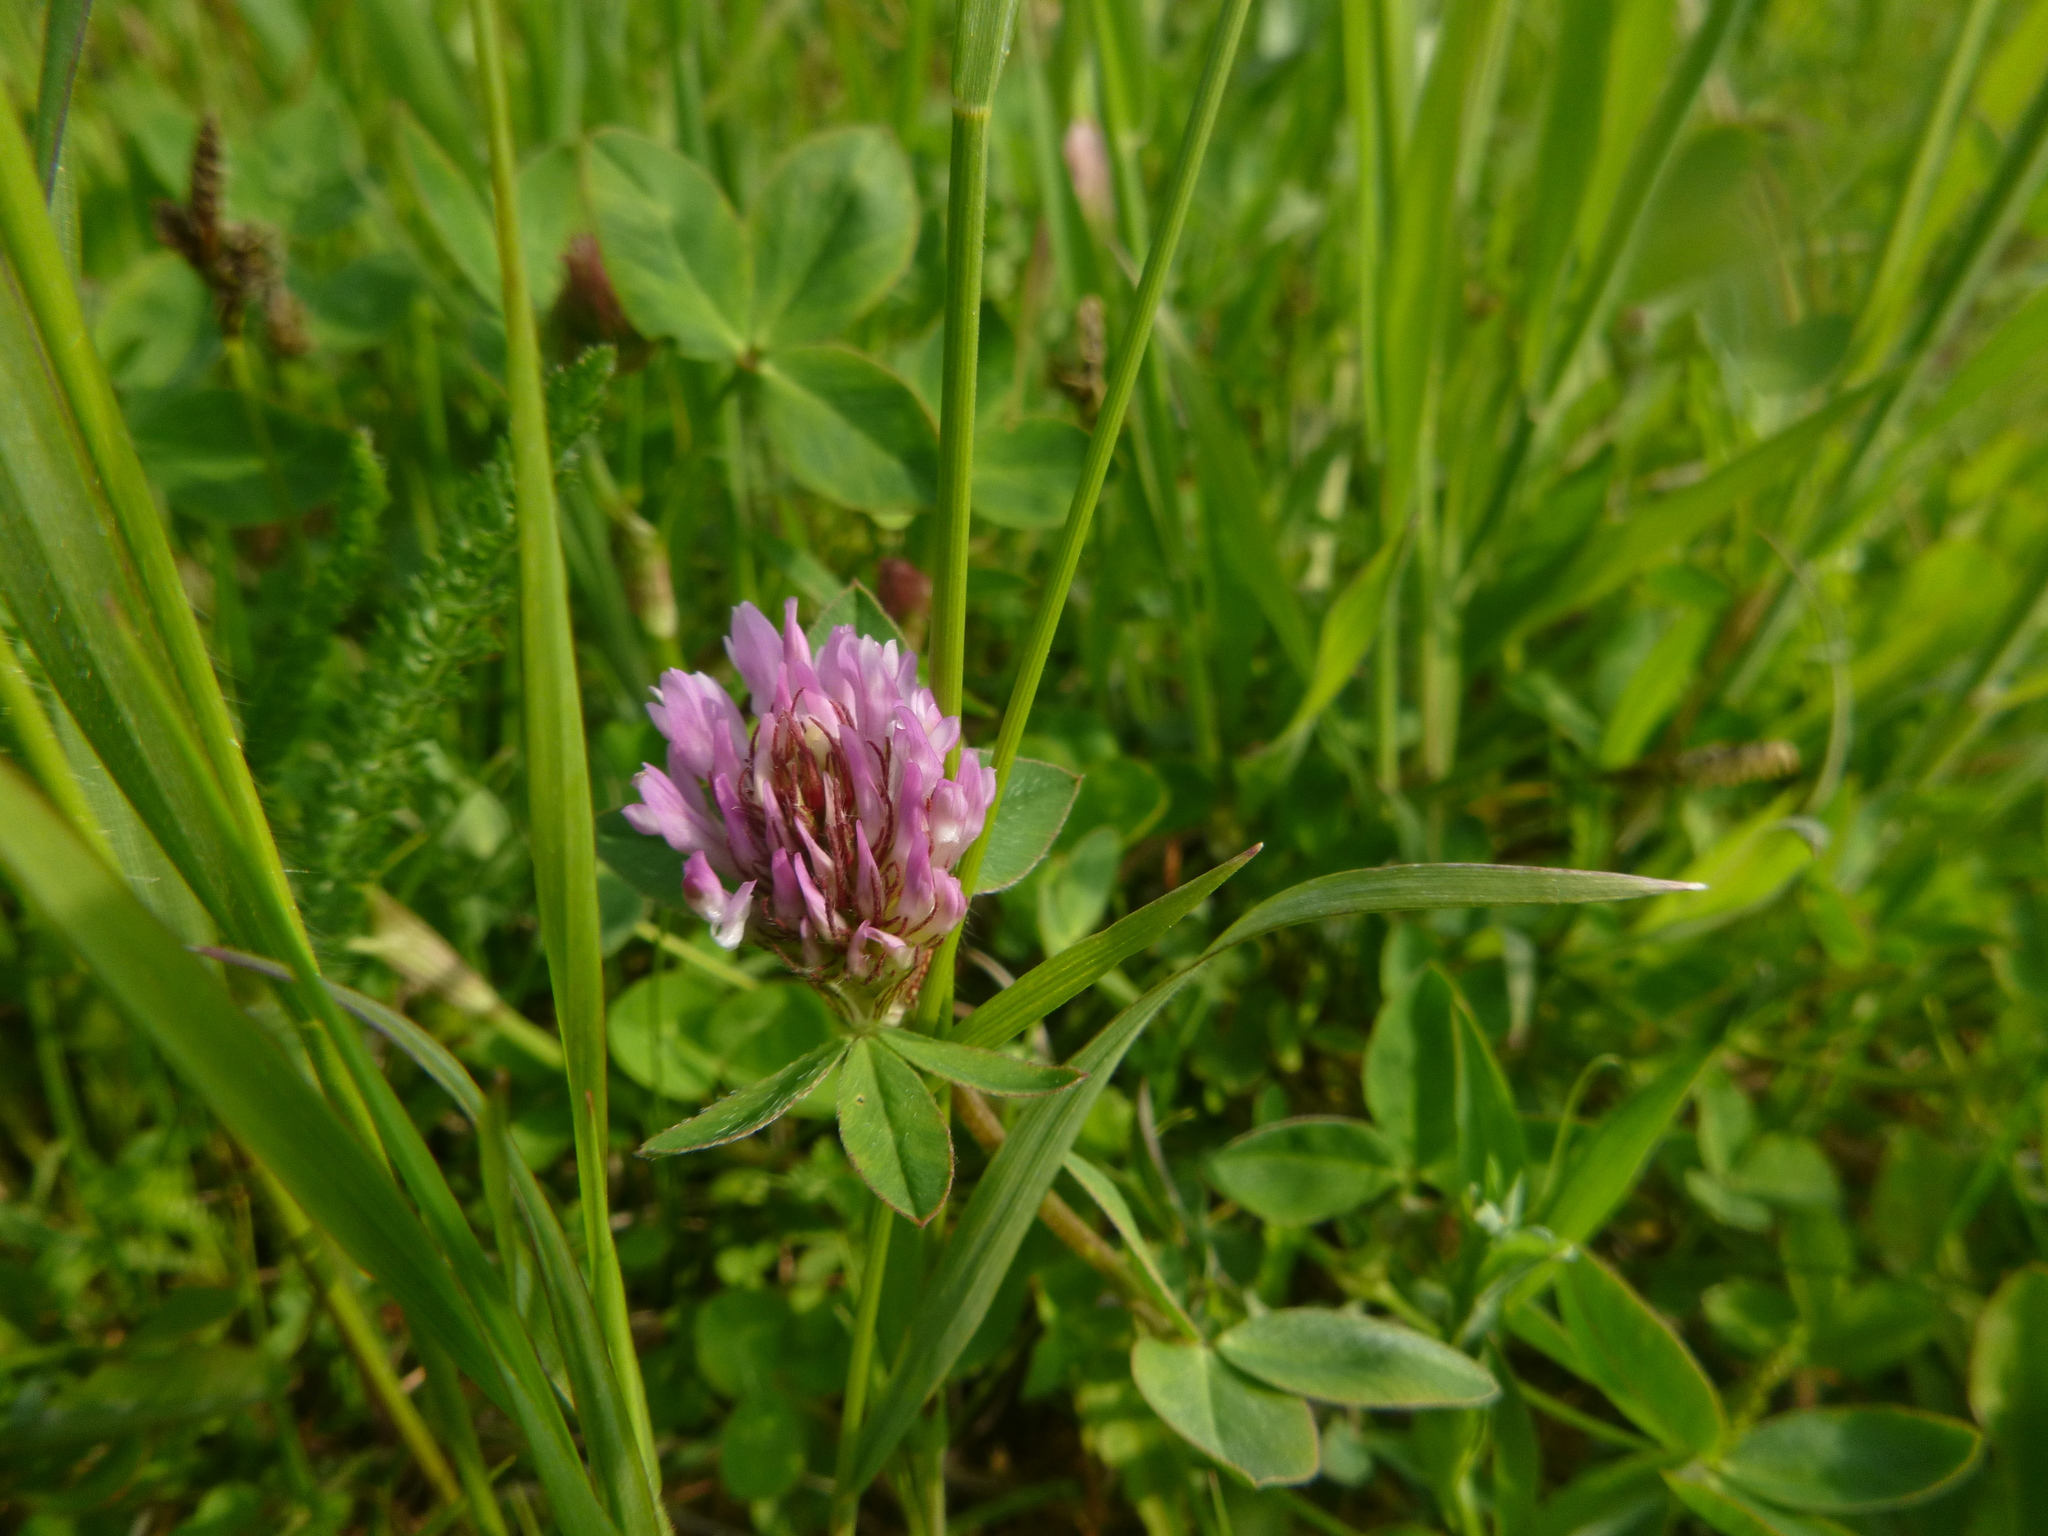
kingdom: Plantae
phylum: Tracheophyta
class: Magnoliopsida
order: Fabales
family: Fabaceae
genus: Trifolium
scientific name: Trifolium pratense
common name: Red clover
